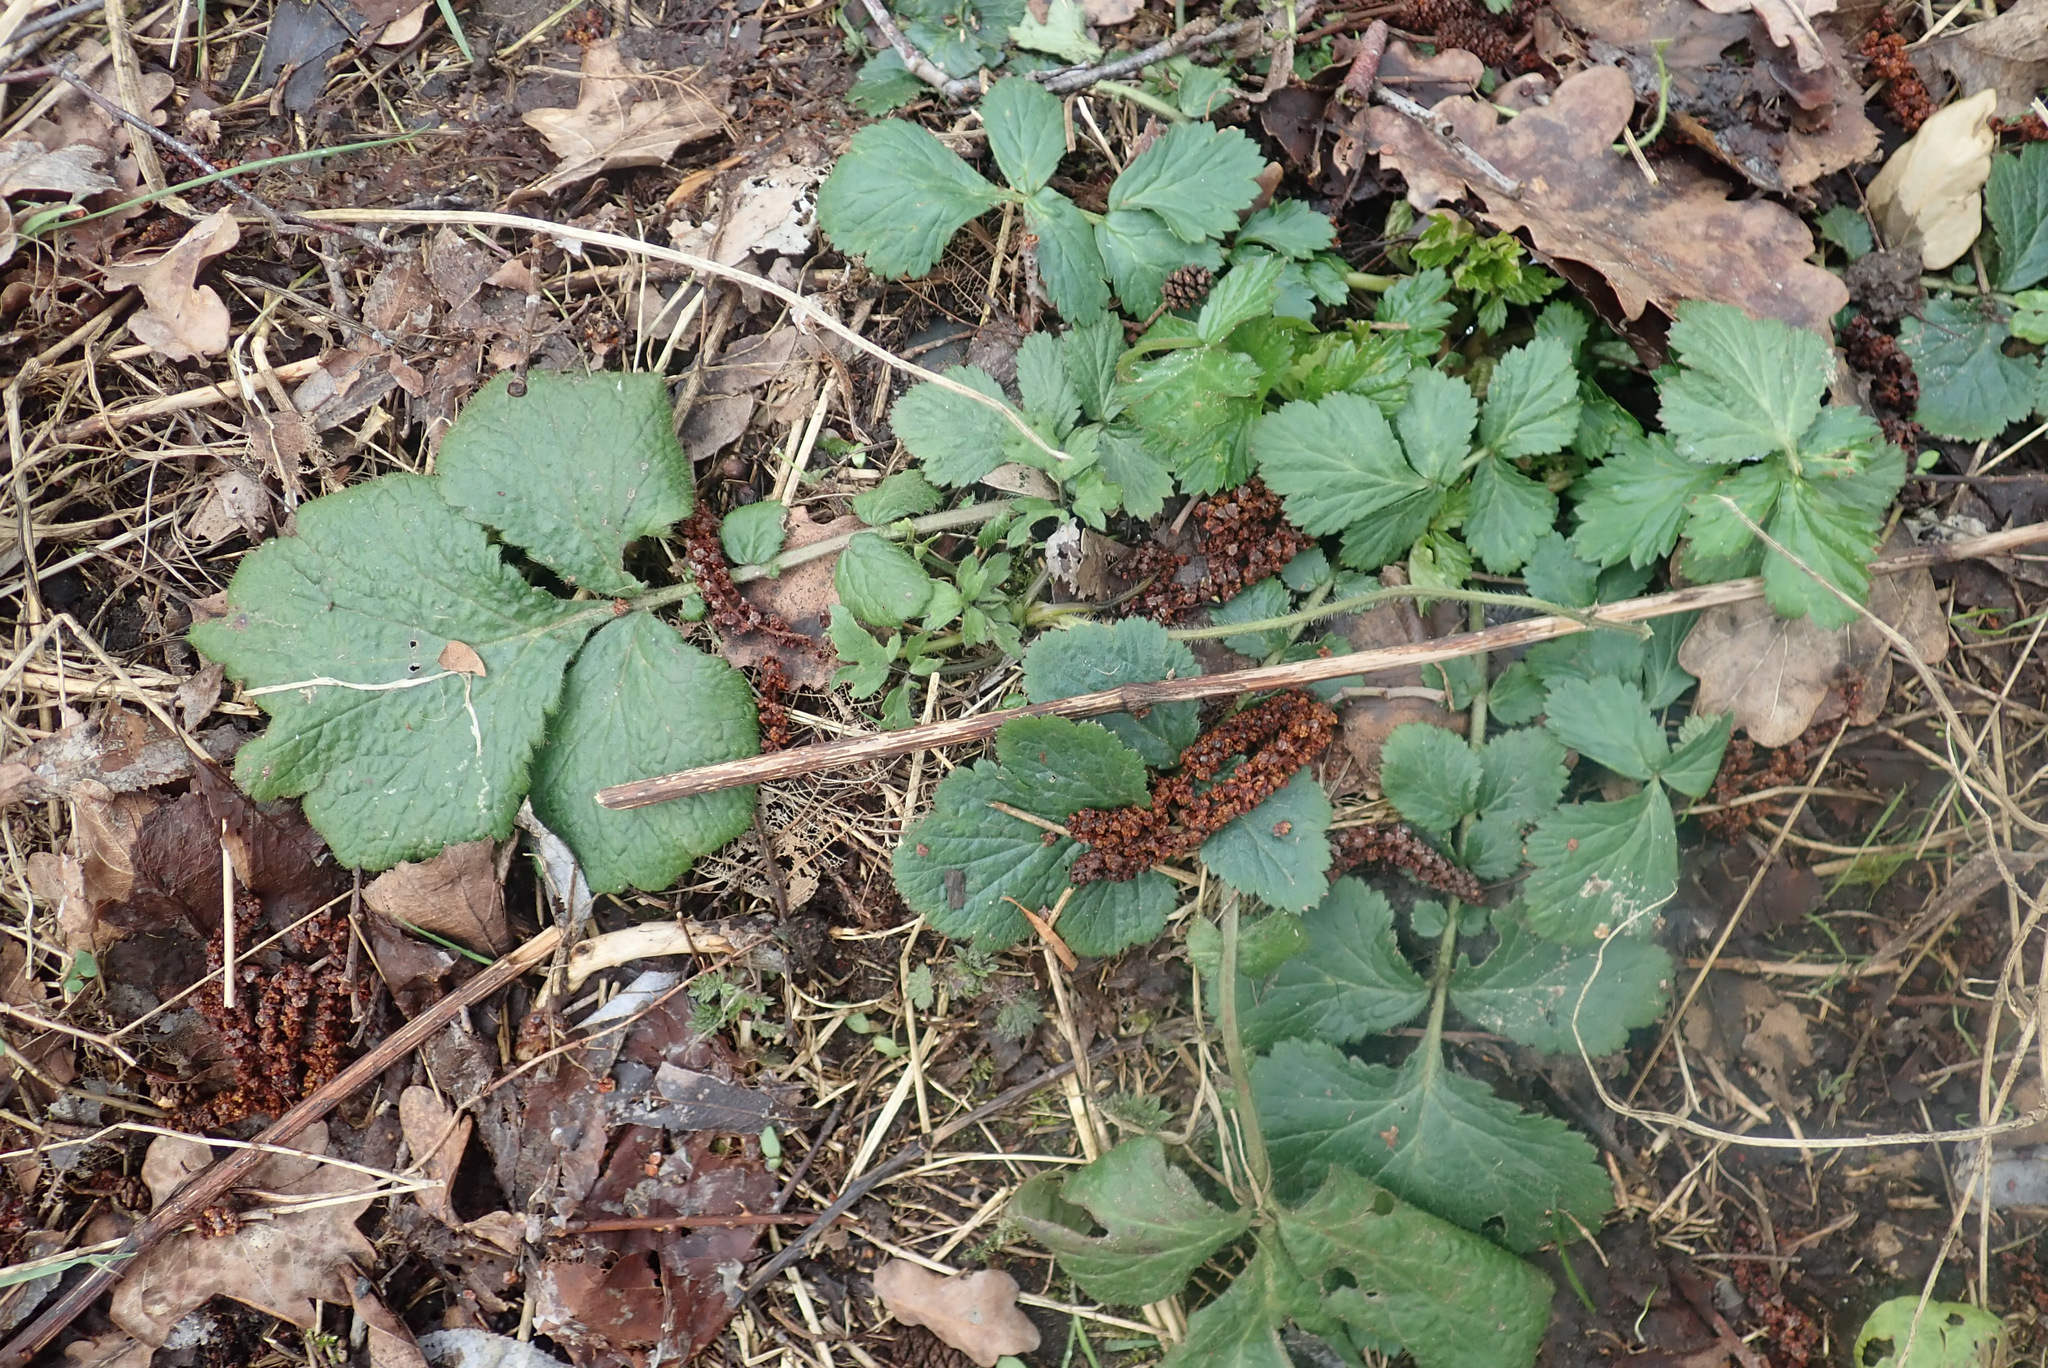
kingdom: Plantae
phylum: Tracheophyta
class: Magnoliopsida
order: Rosales
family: Rosaceae
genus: Geum
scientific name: Geum urbanum
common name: Wood avens
